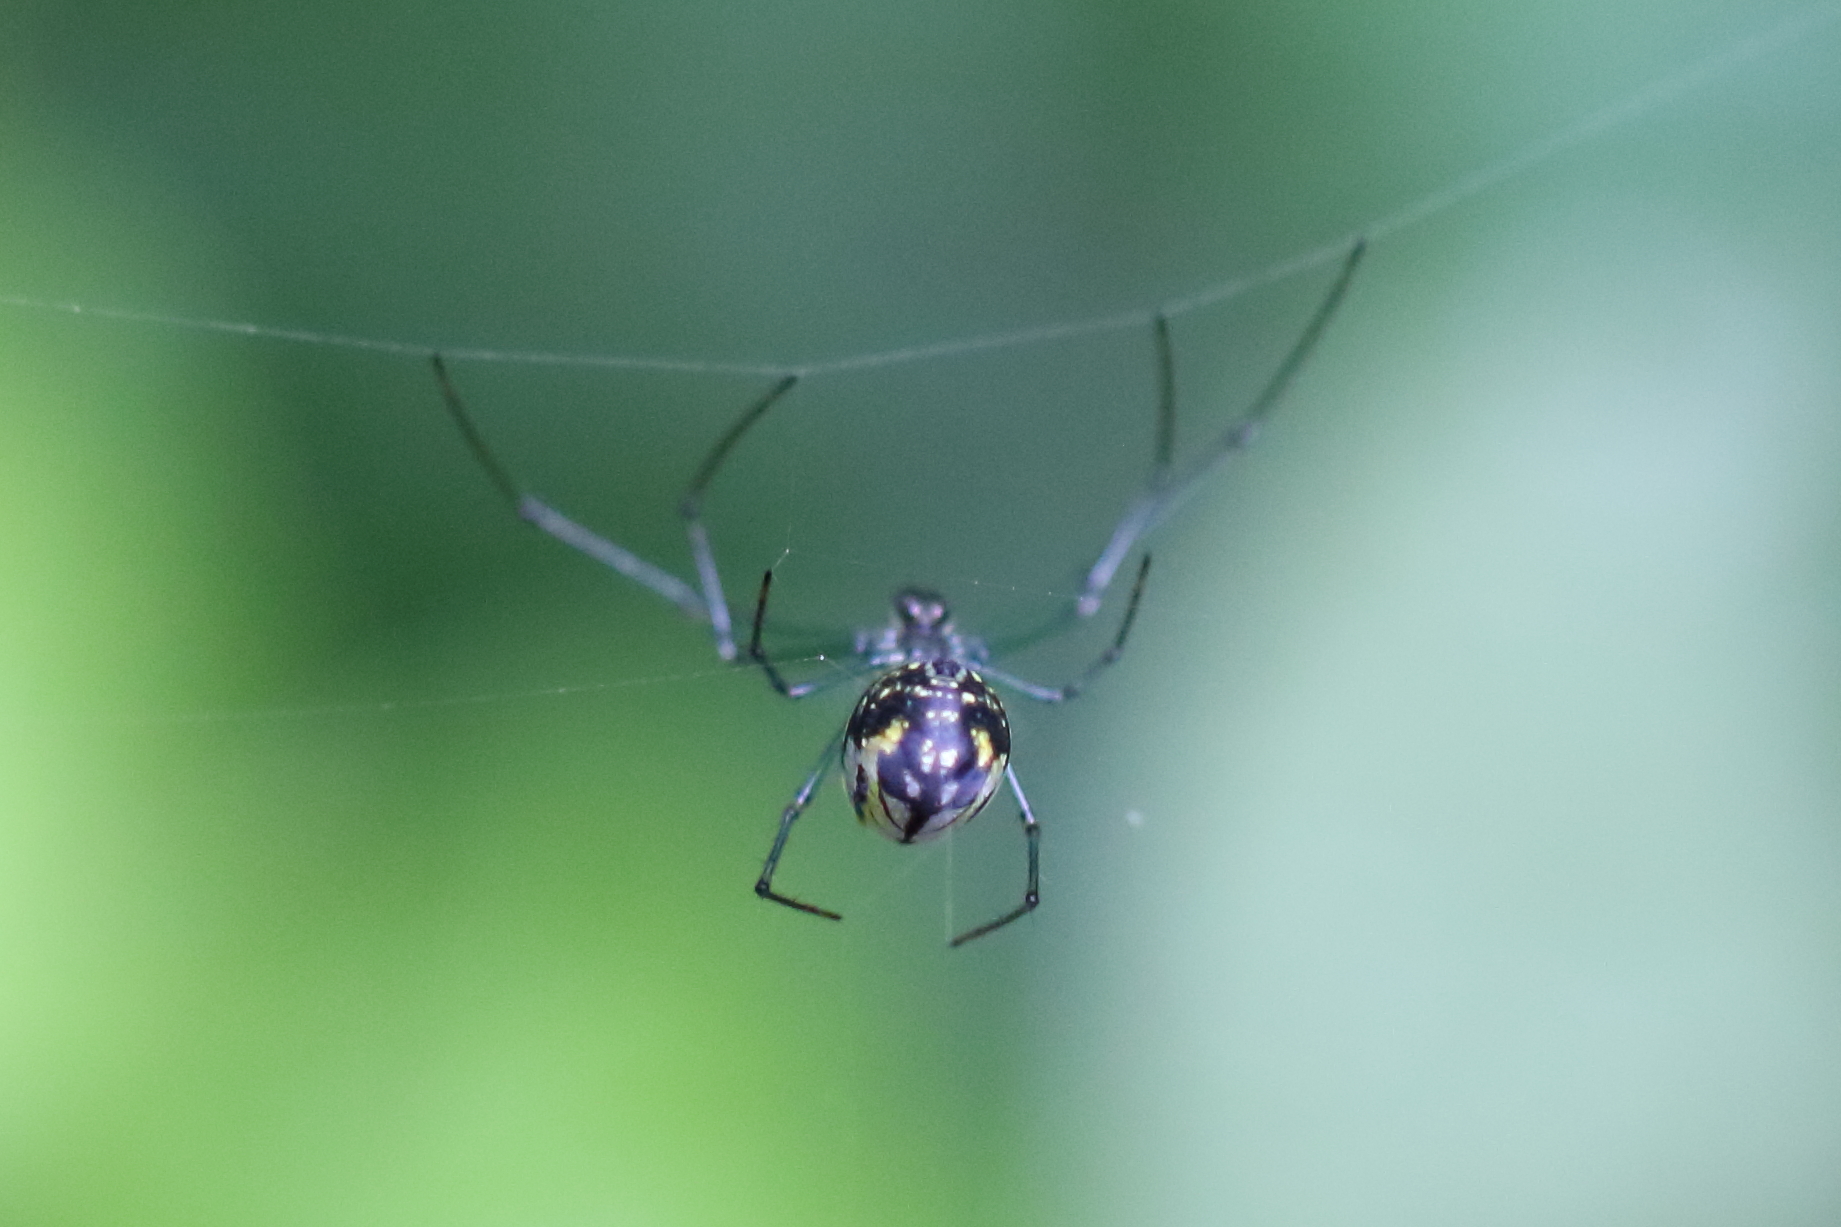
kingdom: Animalia
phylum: Arthropoda
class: Arachnida
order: Araneae
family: Tetragnathidae
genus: Leucauge
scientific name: Leucauge venusta
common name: Longjawed orb weavers
